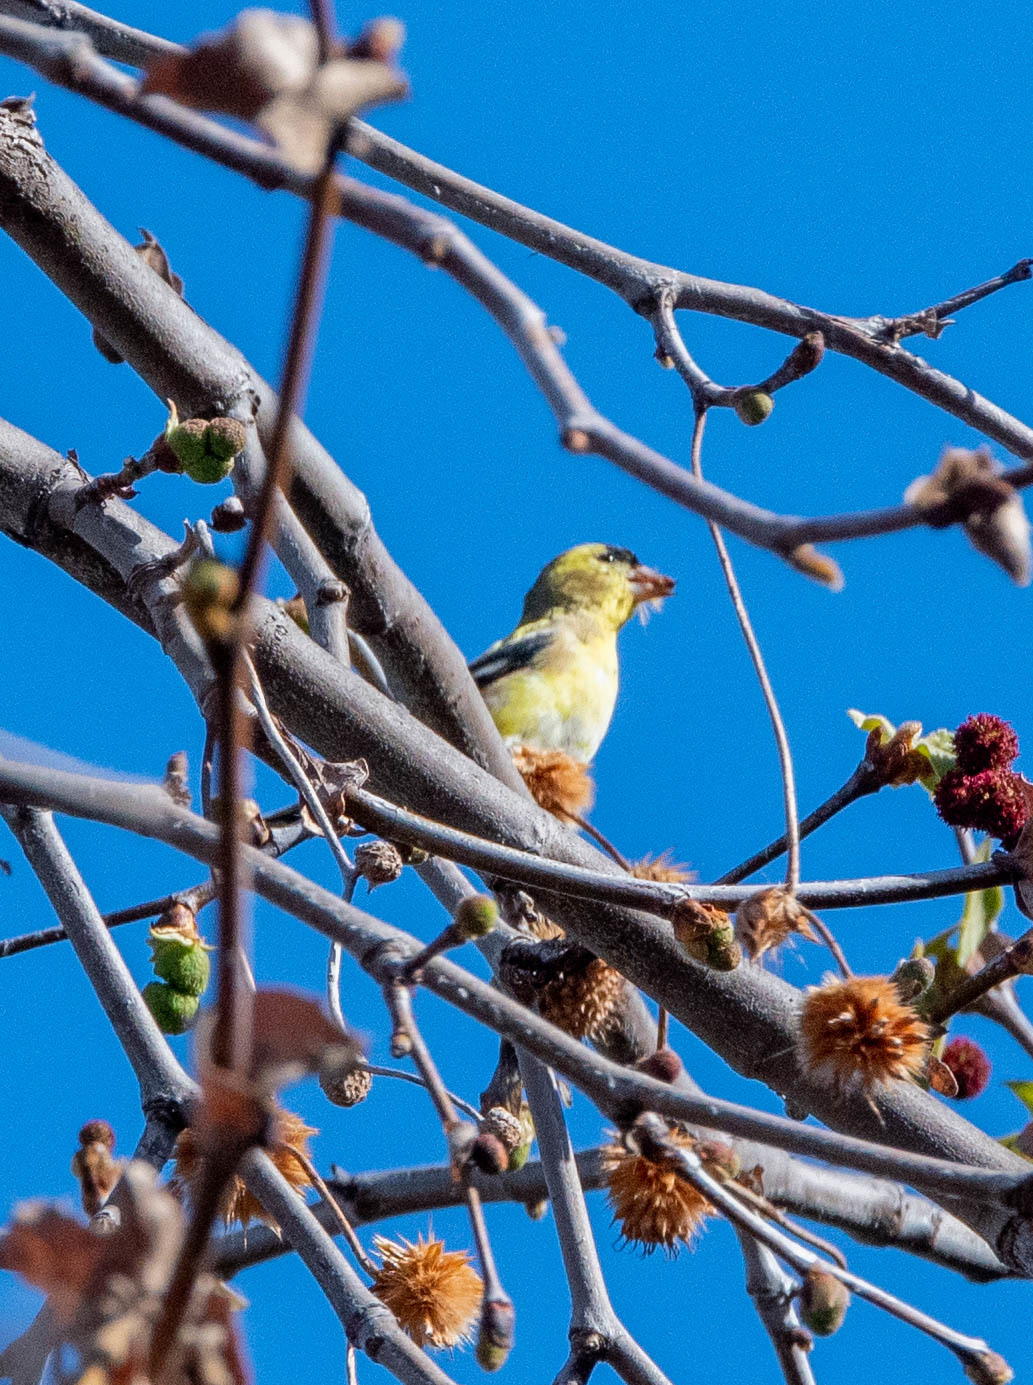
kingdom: Animalia
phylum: Chordata
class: Aves
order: Passeriformes
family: Fringillidae
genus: Spinus
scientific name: Spinus tristis
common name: American goldfinch
